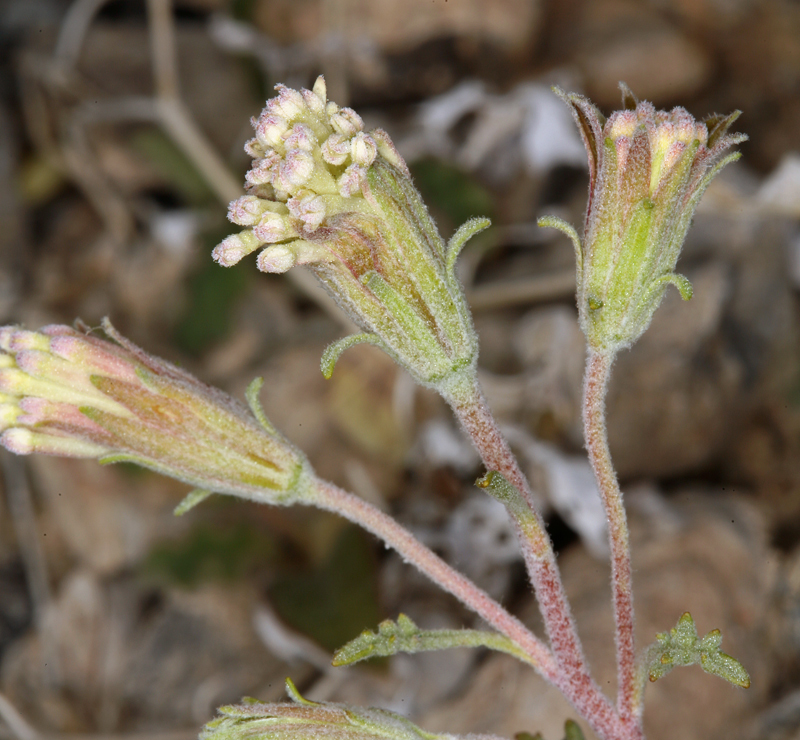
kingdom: Plantae
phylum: Tracheophyta
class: Magnoliopsida
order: Asterales
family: Asteraceae
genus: Chaenactis
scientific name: Chaenactis macrantha
